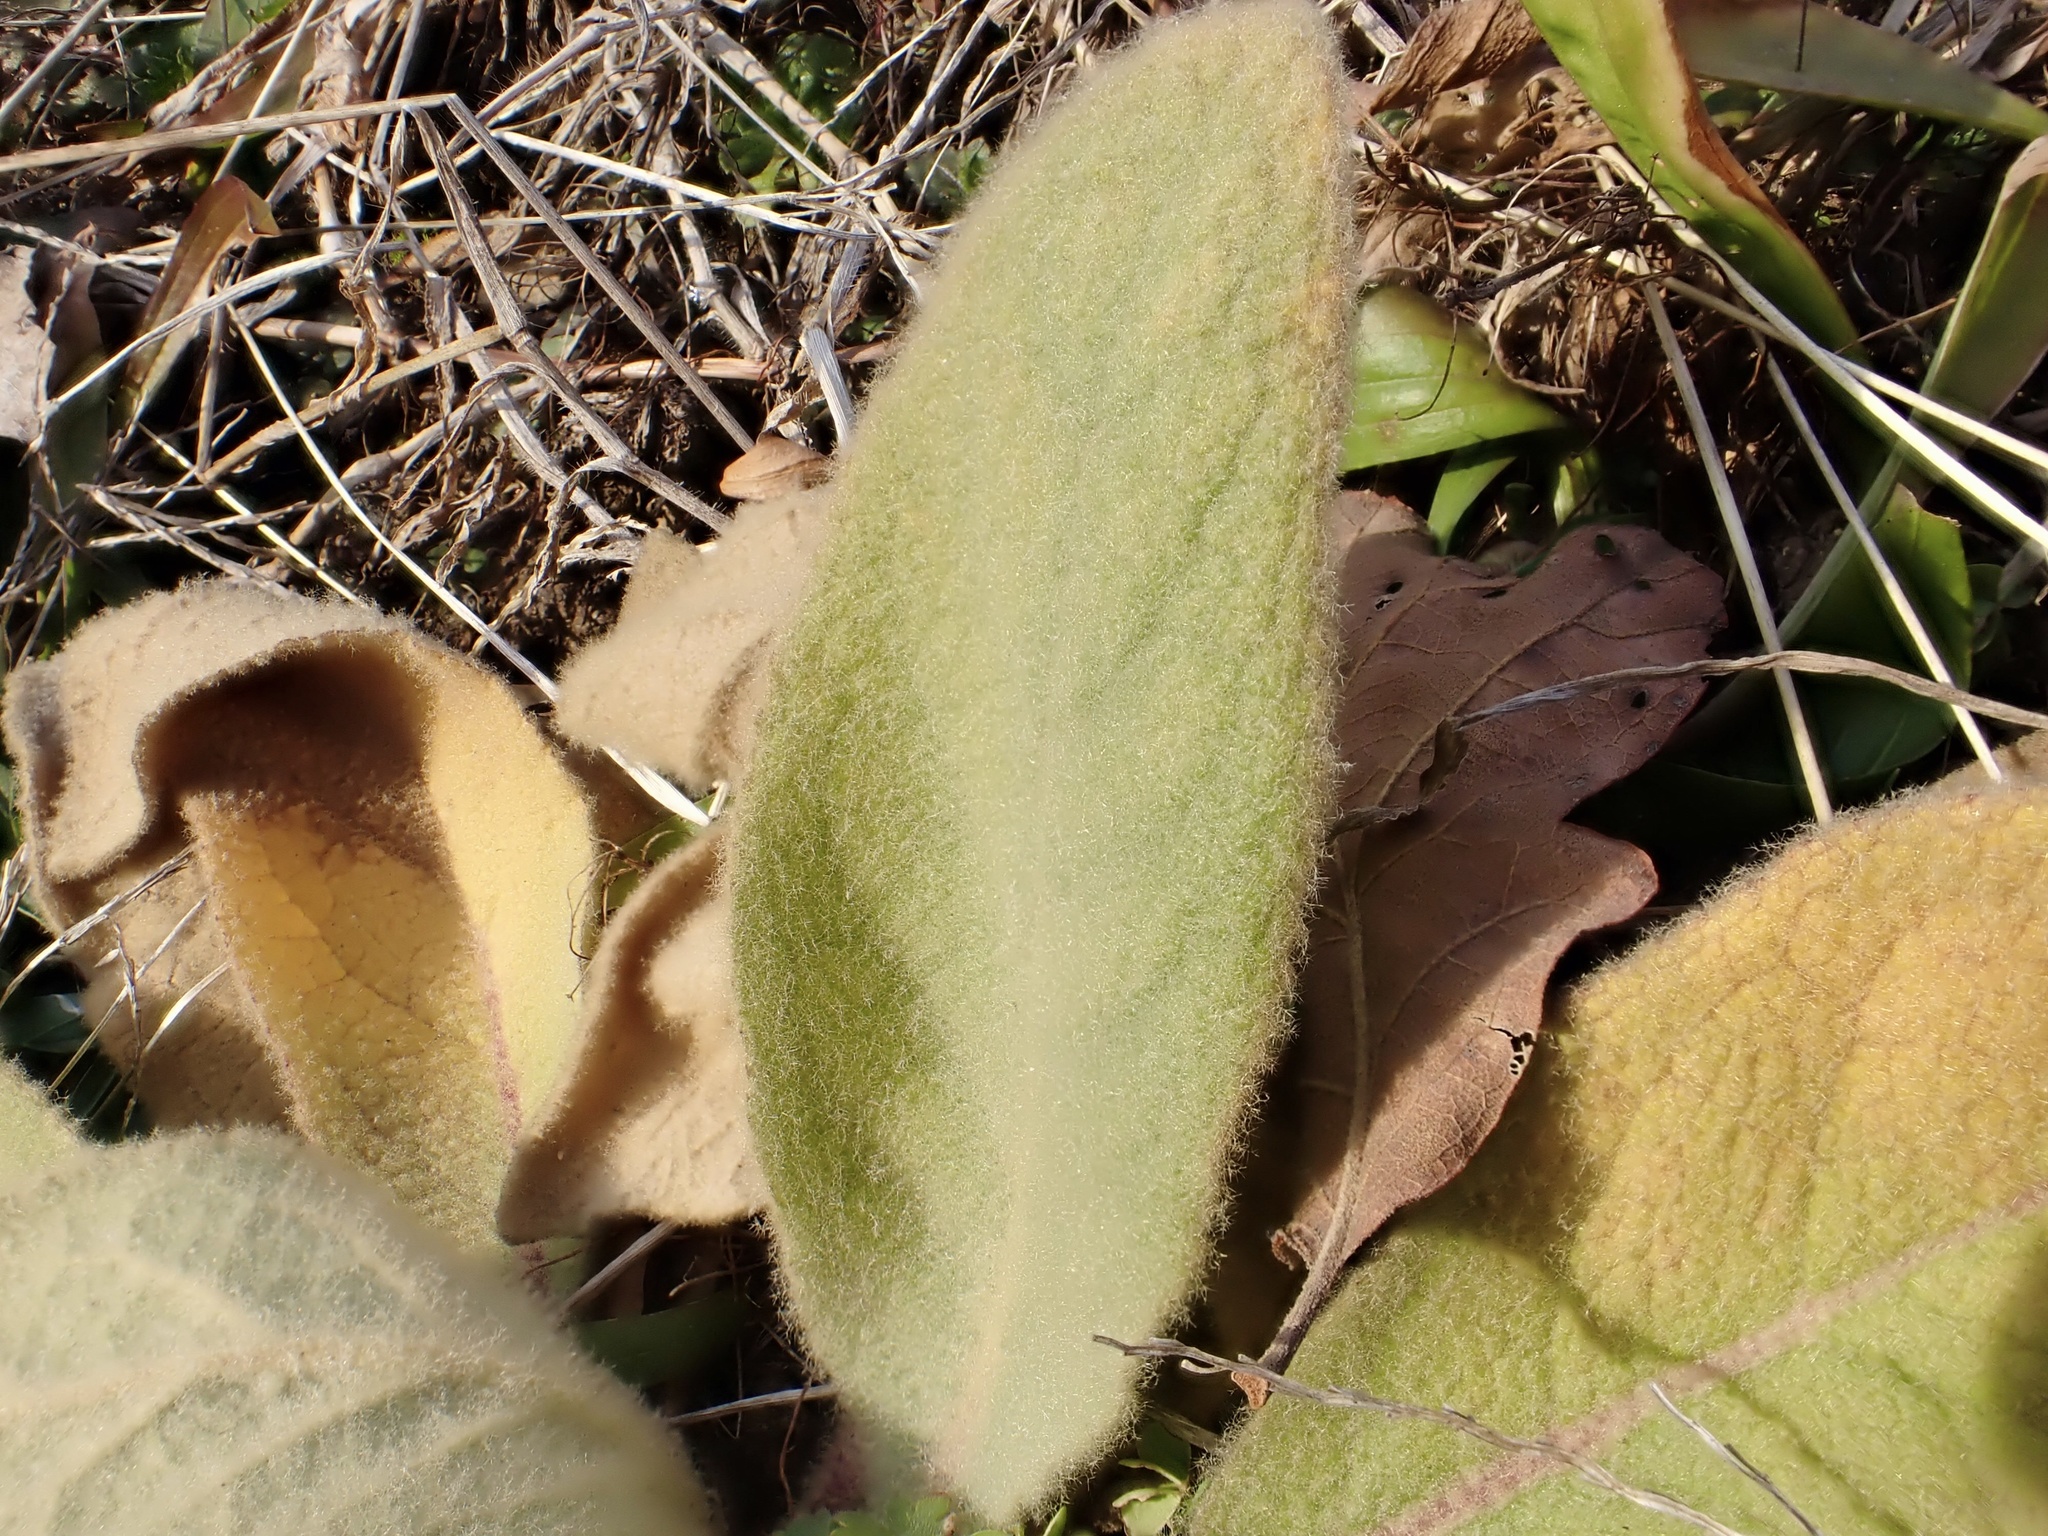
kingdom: Plantae
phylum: Tracheophyta
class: Magnoliopsida
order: Lamiales
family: Scrophulariaceae
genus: Verbascum
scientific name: Verbascum thapsus
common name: Common mullein
